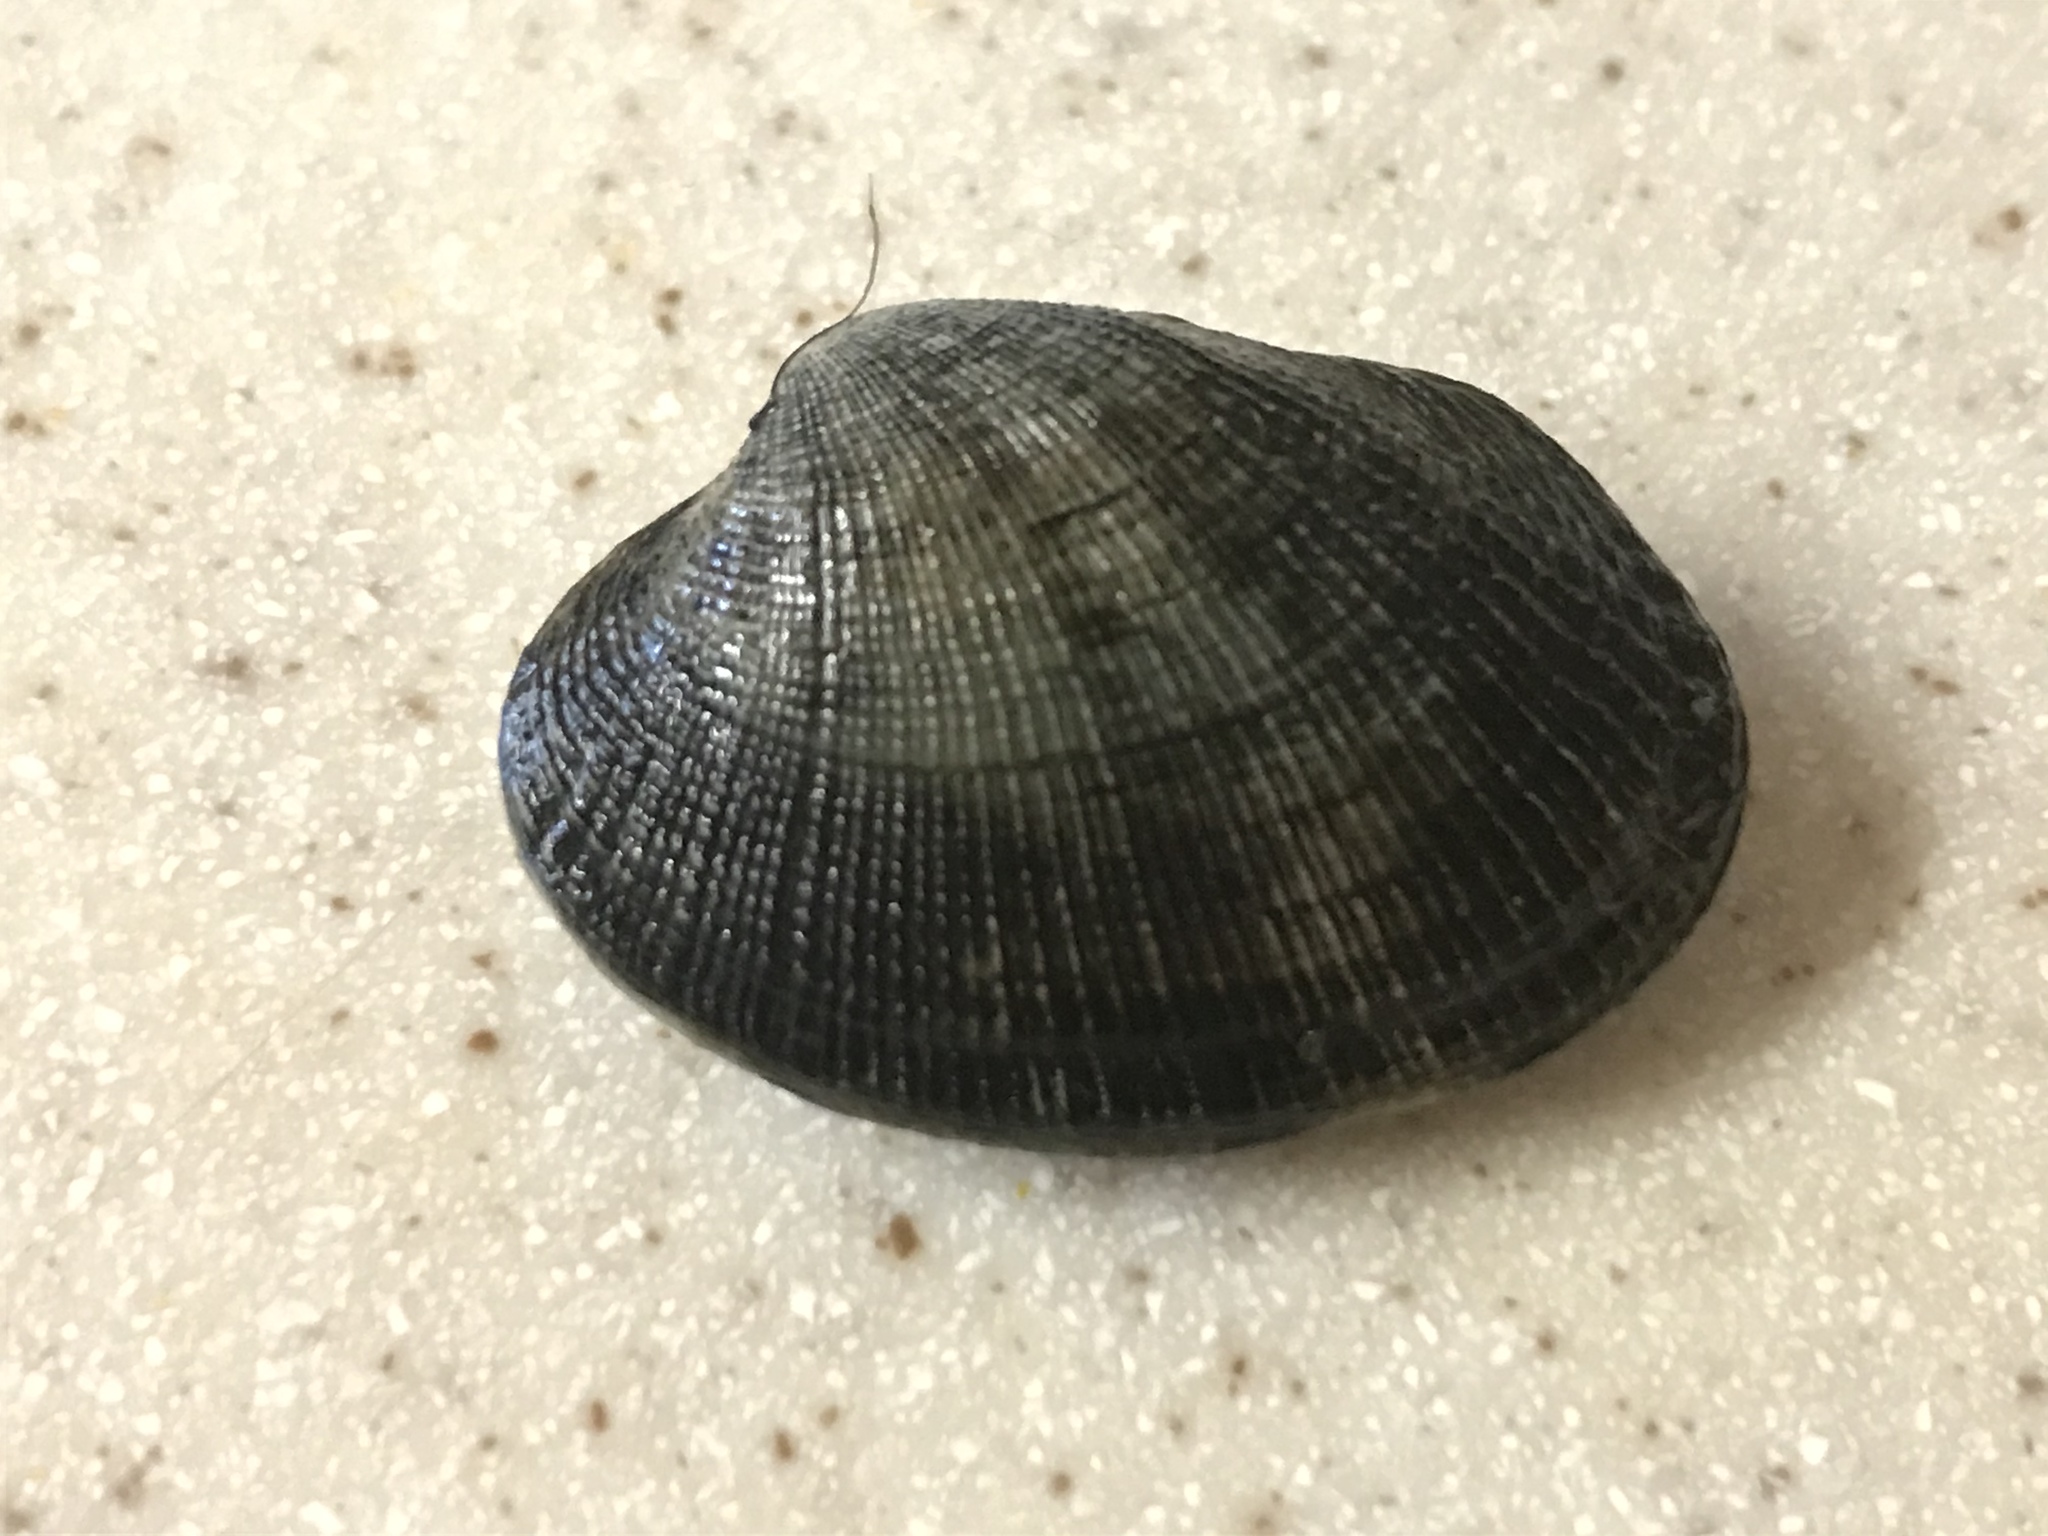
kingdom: Animalia
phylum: Mollusca
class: Bivalvia
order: Venerida
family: Veneridae
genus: Ruditapes
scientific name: Ruditapes philippinarum
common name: Manila clam
